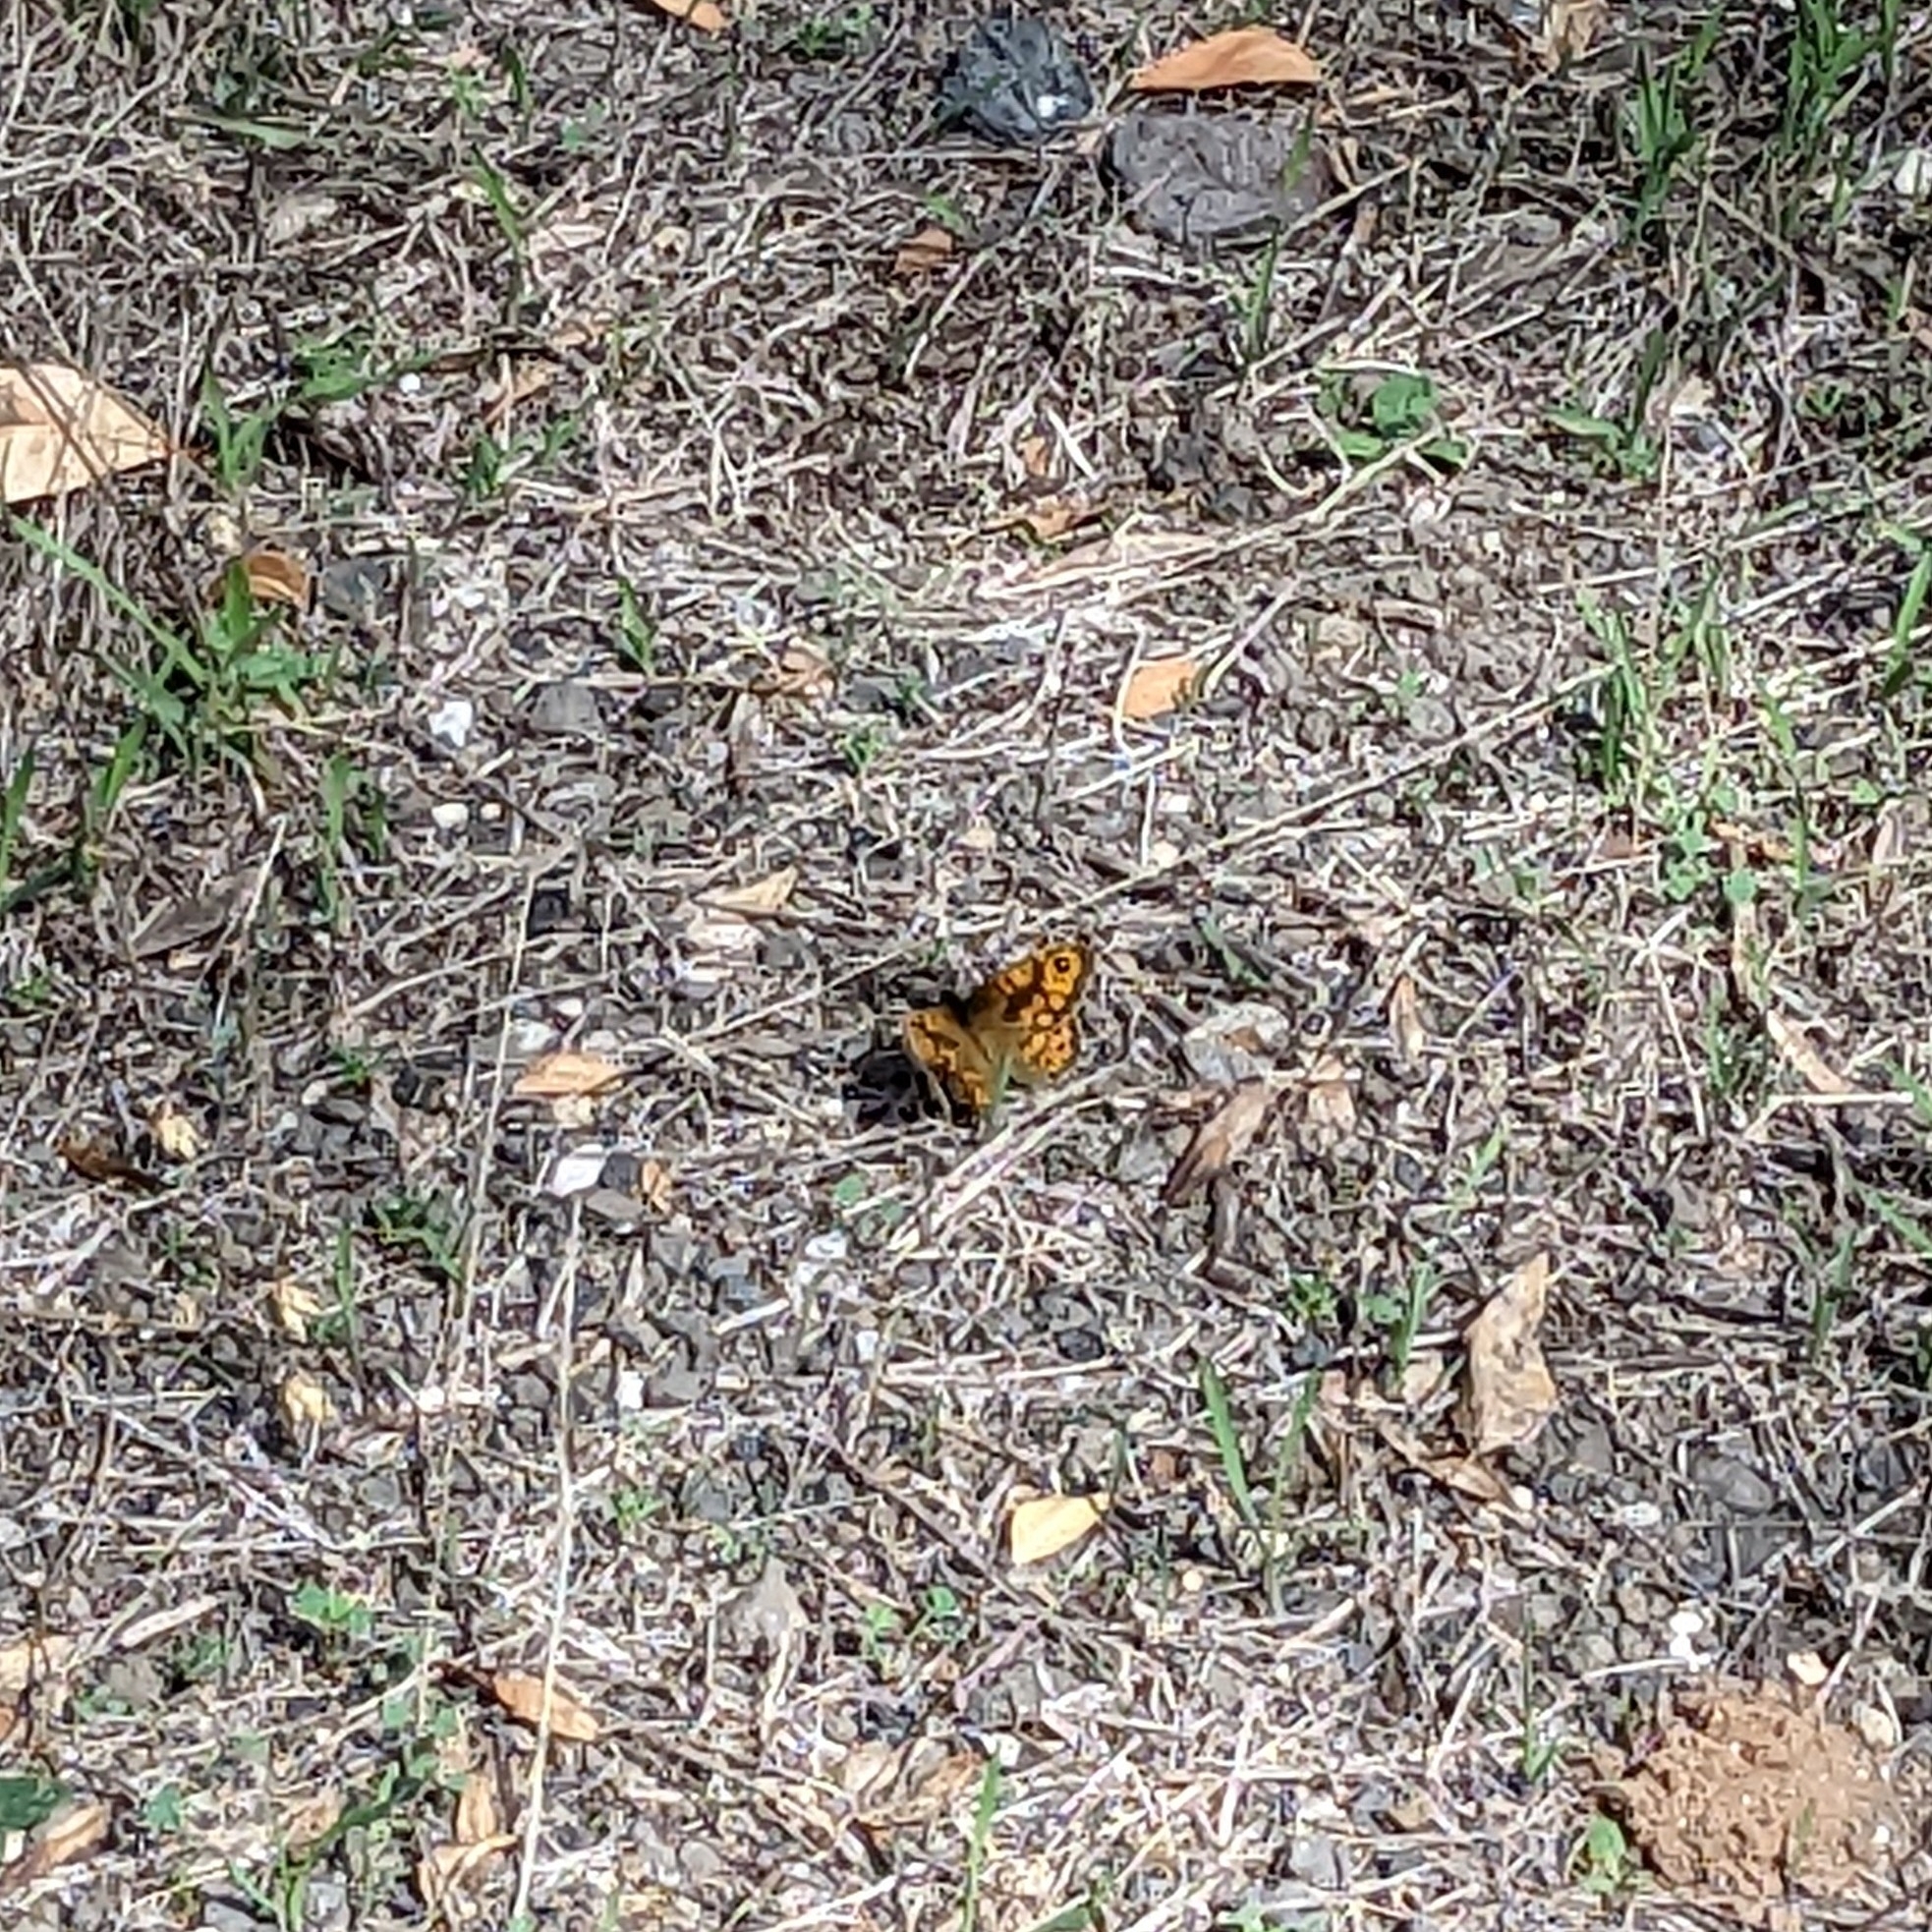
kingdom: Animalia
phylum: Arthropoda
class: Insecta
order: Lepidoptera
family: Nymphalidae
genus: Pararge
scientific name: Pararge Lasiommata megera
